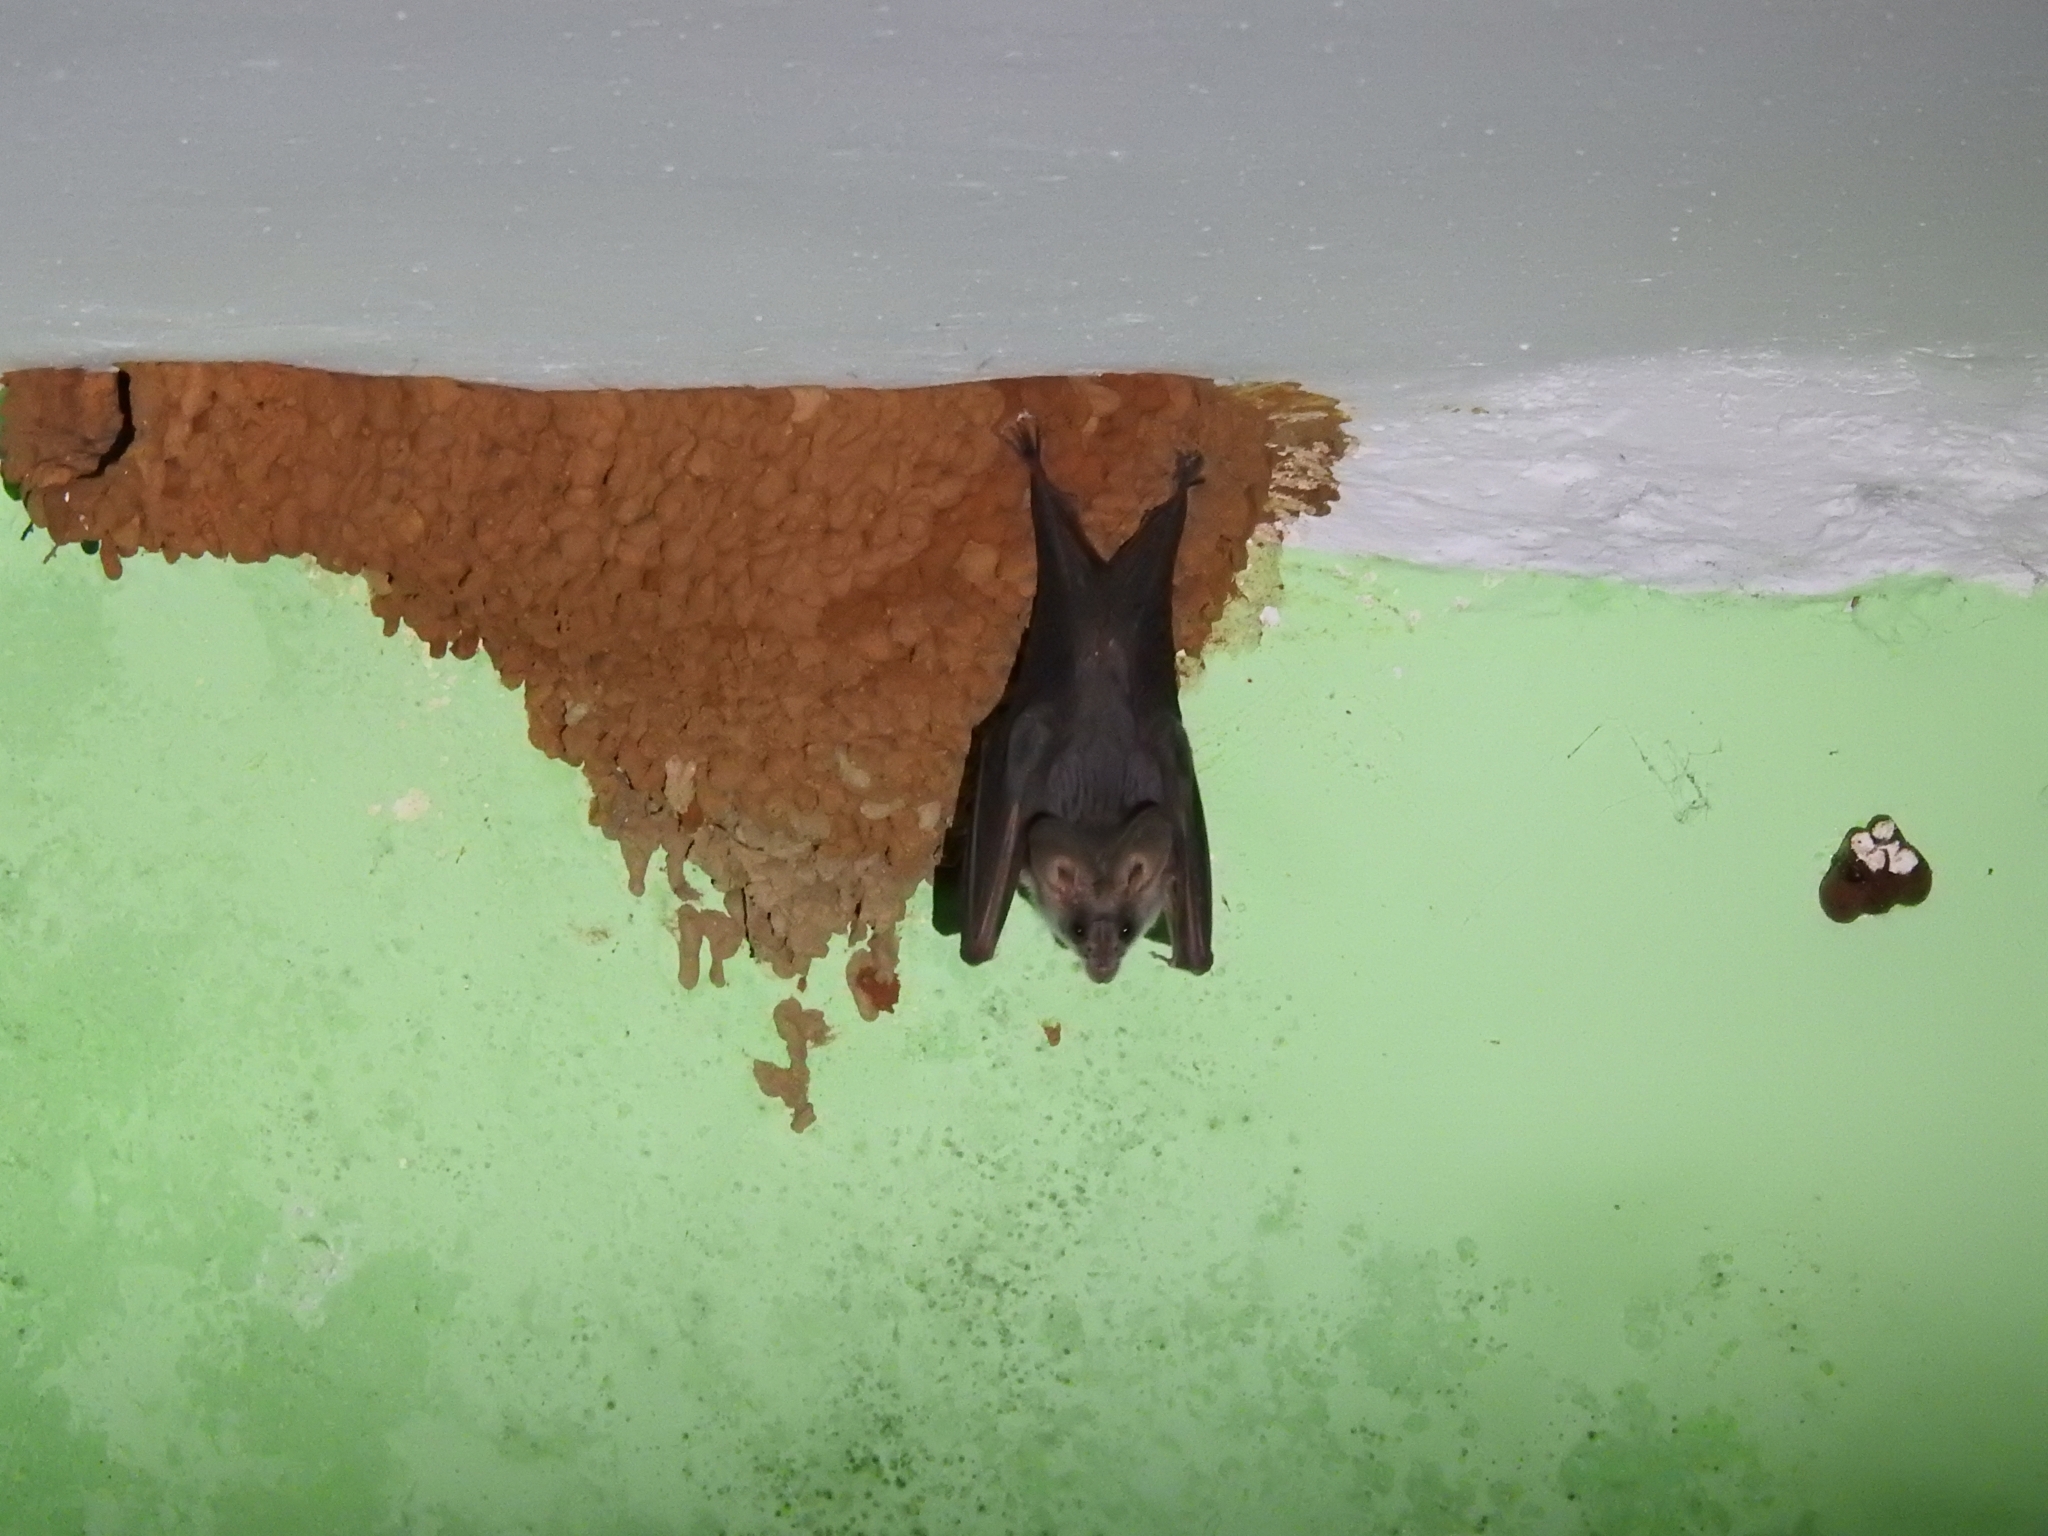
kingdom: Animalia
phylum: Chordata
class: Mammalia
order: Chiroptera
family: Megadermatidae
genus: Lyroderma
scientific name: Lyroderma lyra
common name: Greater false vampire bat
